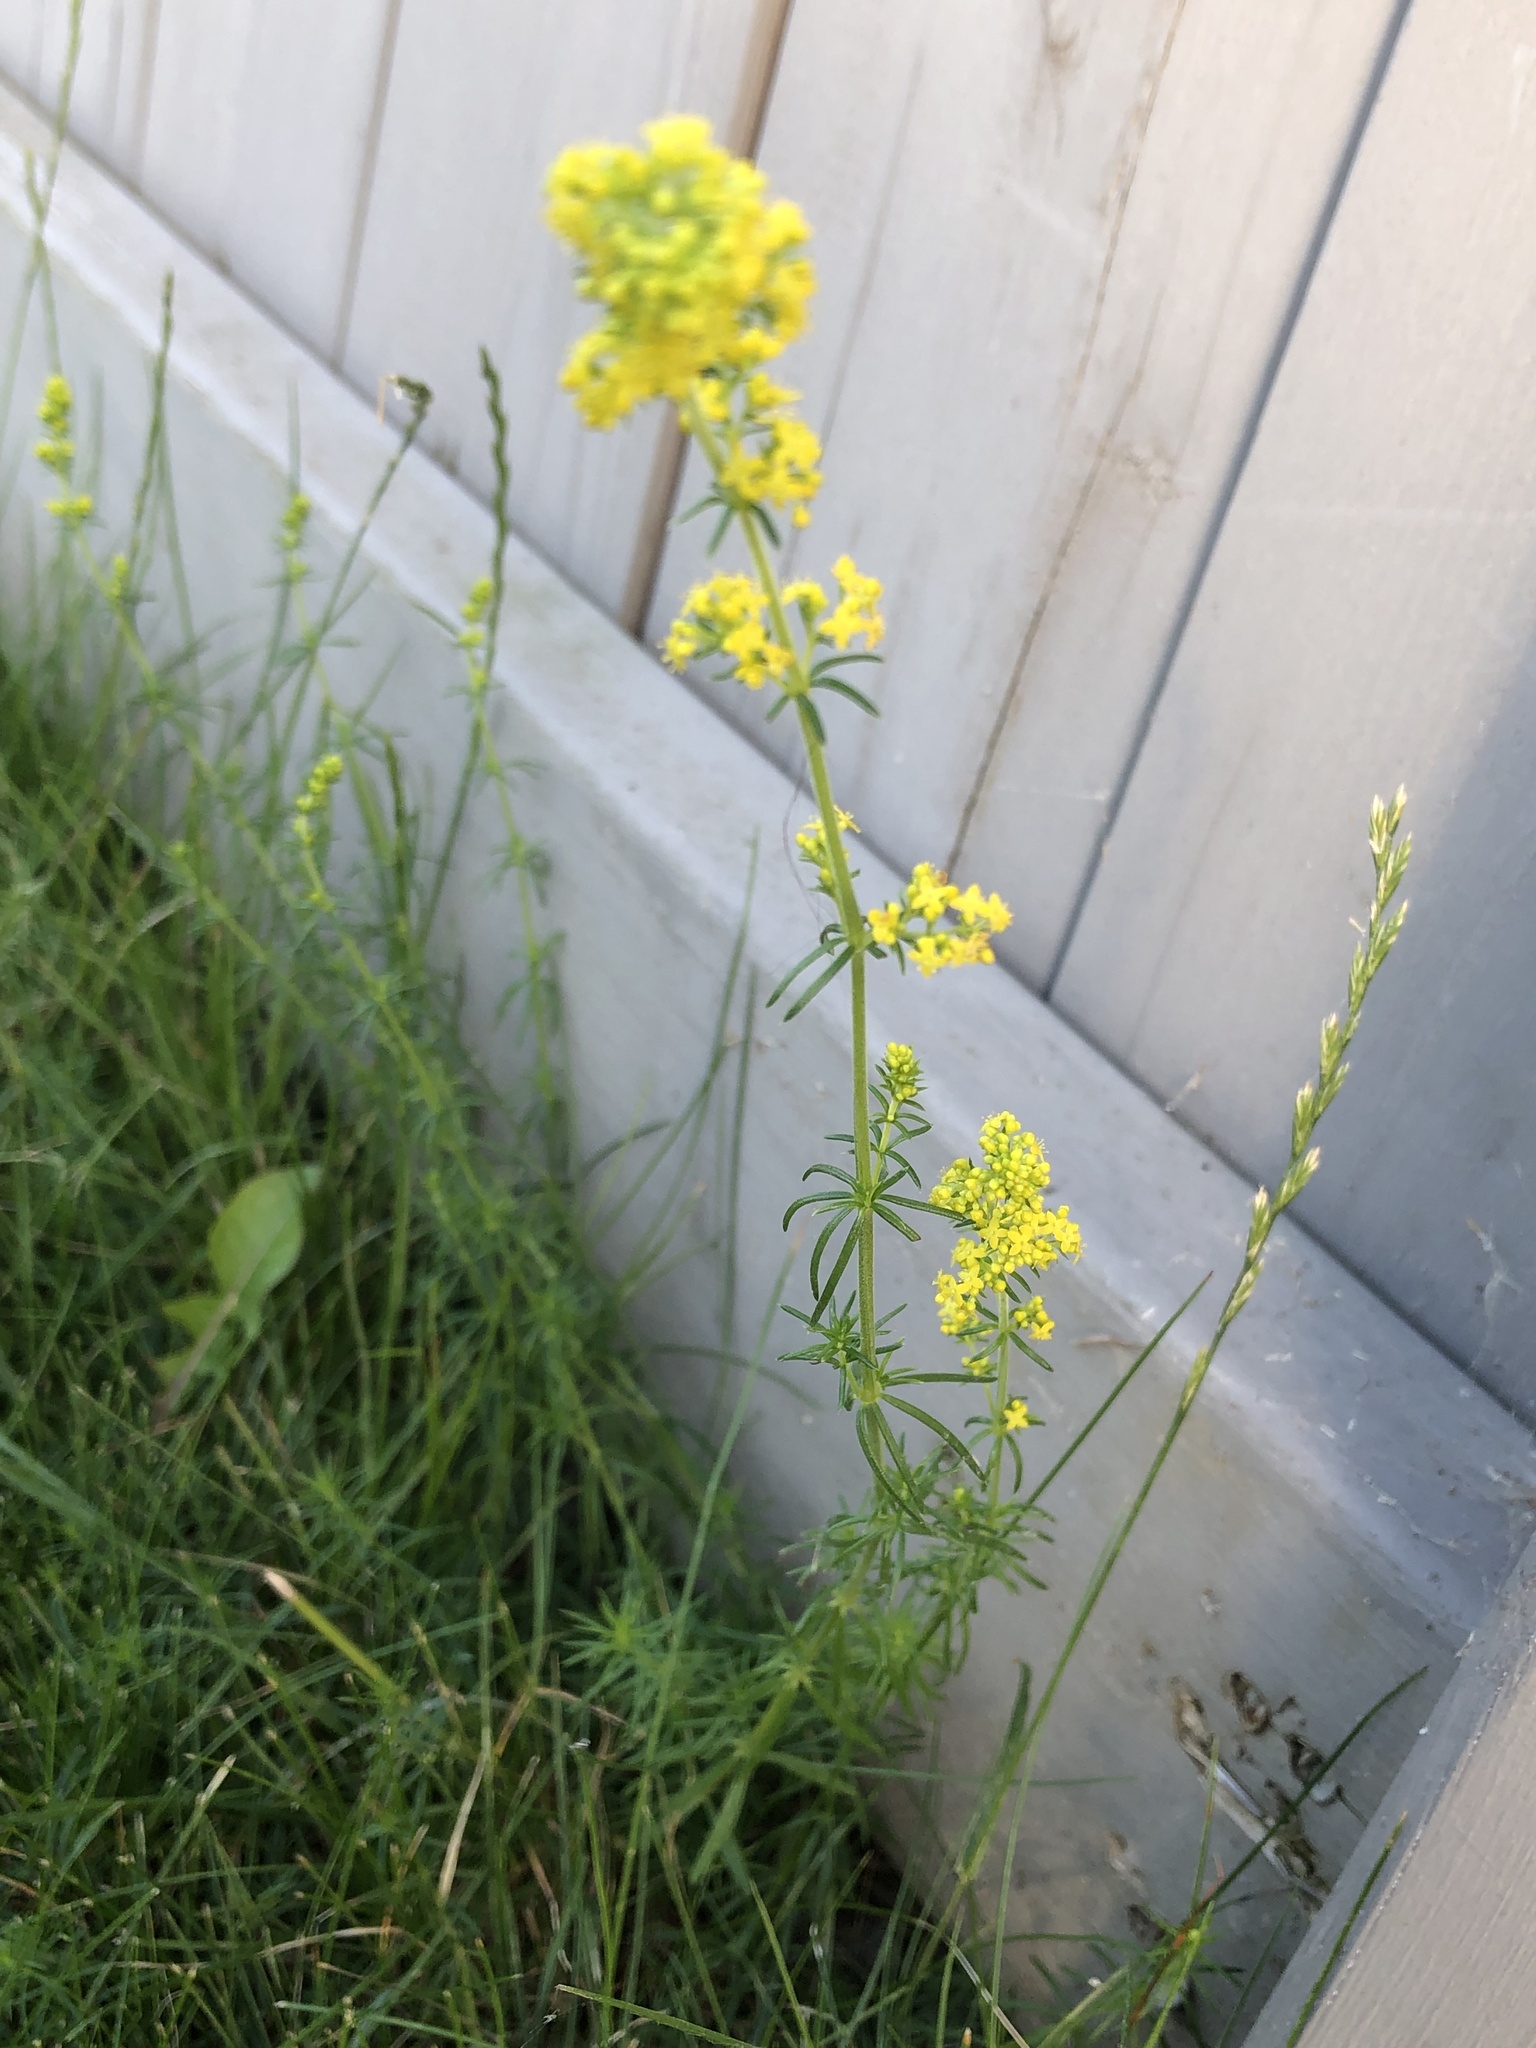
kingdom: Plantae
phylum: Tracheophyta
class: Magnoliopsida
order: Gentianales
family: Rubiaceae
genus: Galium
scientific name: Galium verum
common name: Lady's bedstraw
